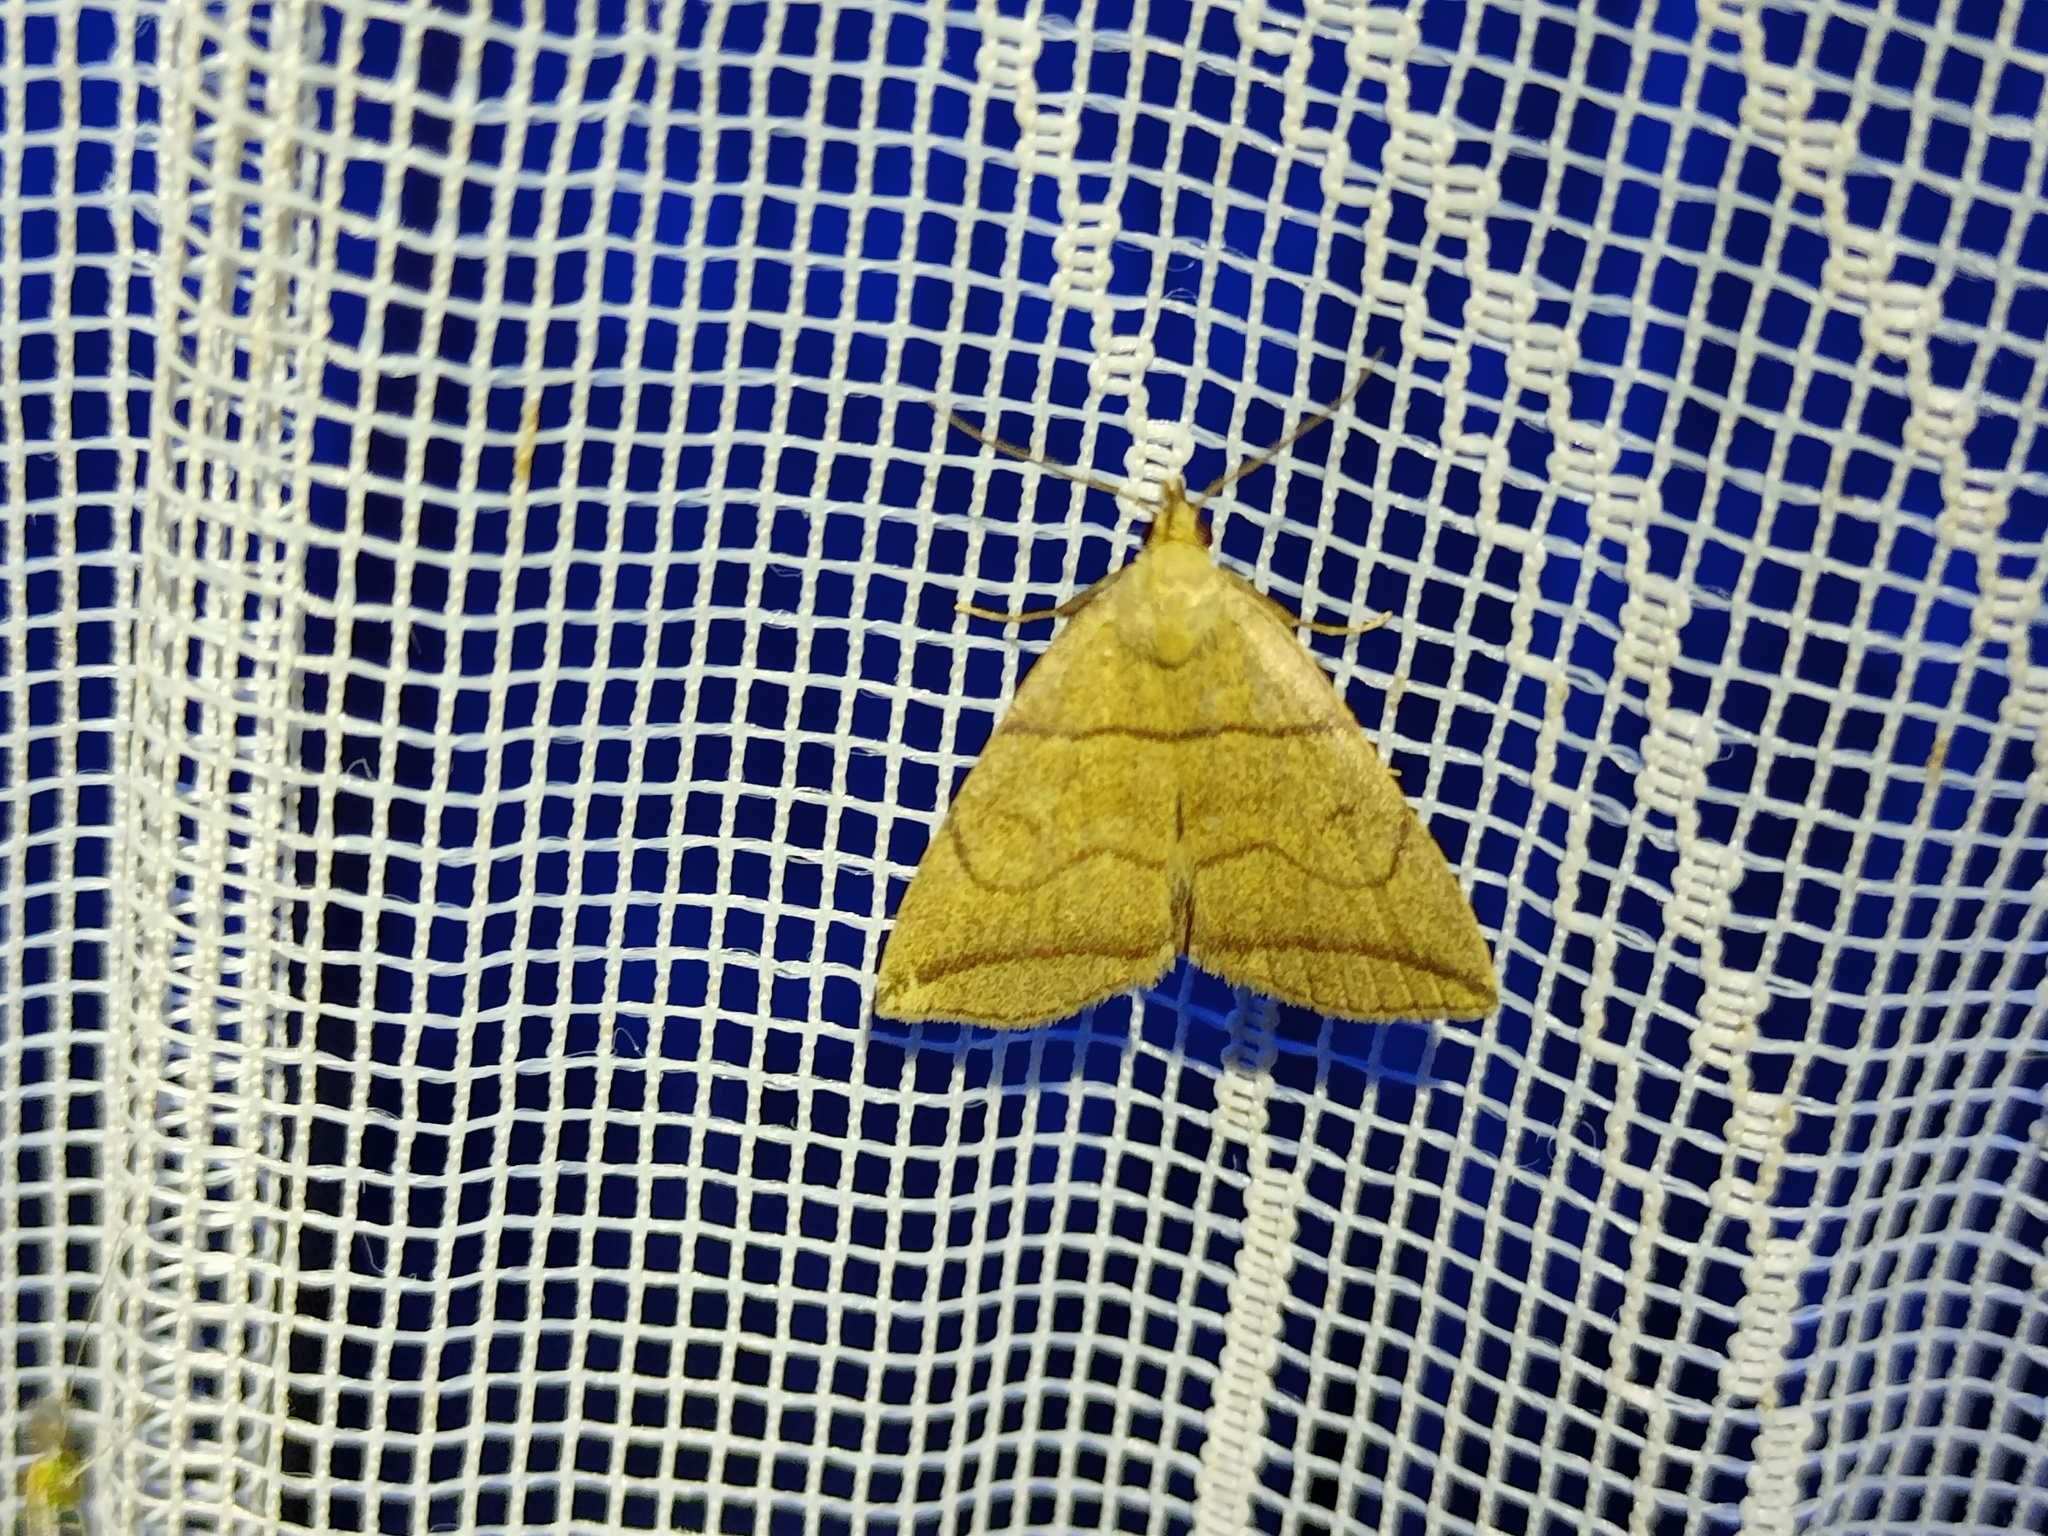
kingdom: Animalia
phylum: Arthropoda
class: Insecta
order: Lepidoptera
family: Erebidae
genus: Herminia
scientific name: Herminia grisealis
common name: Small fan-foot
